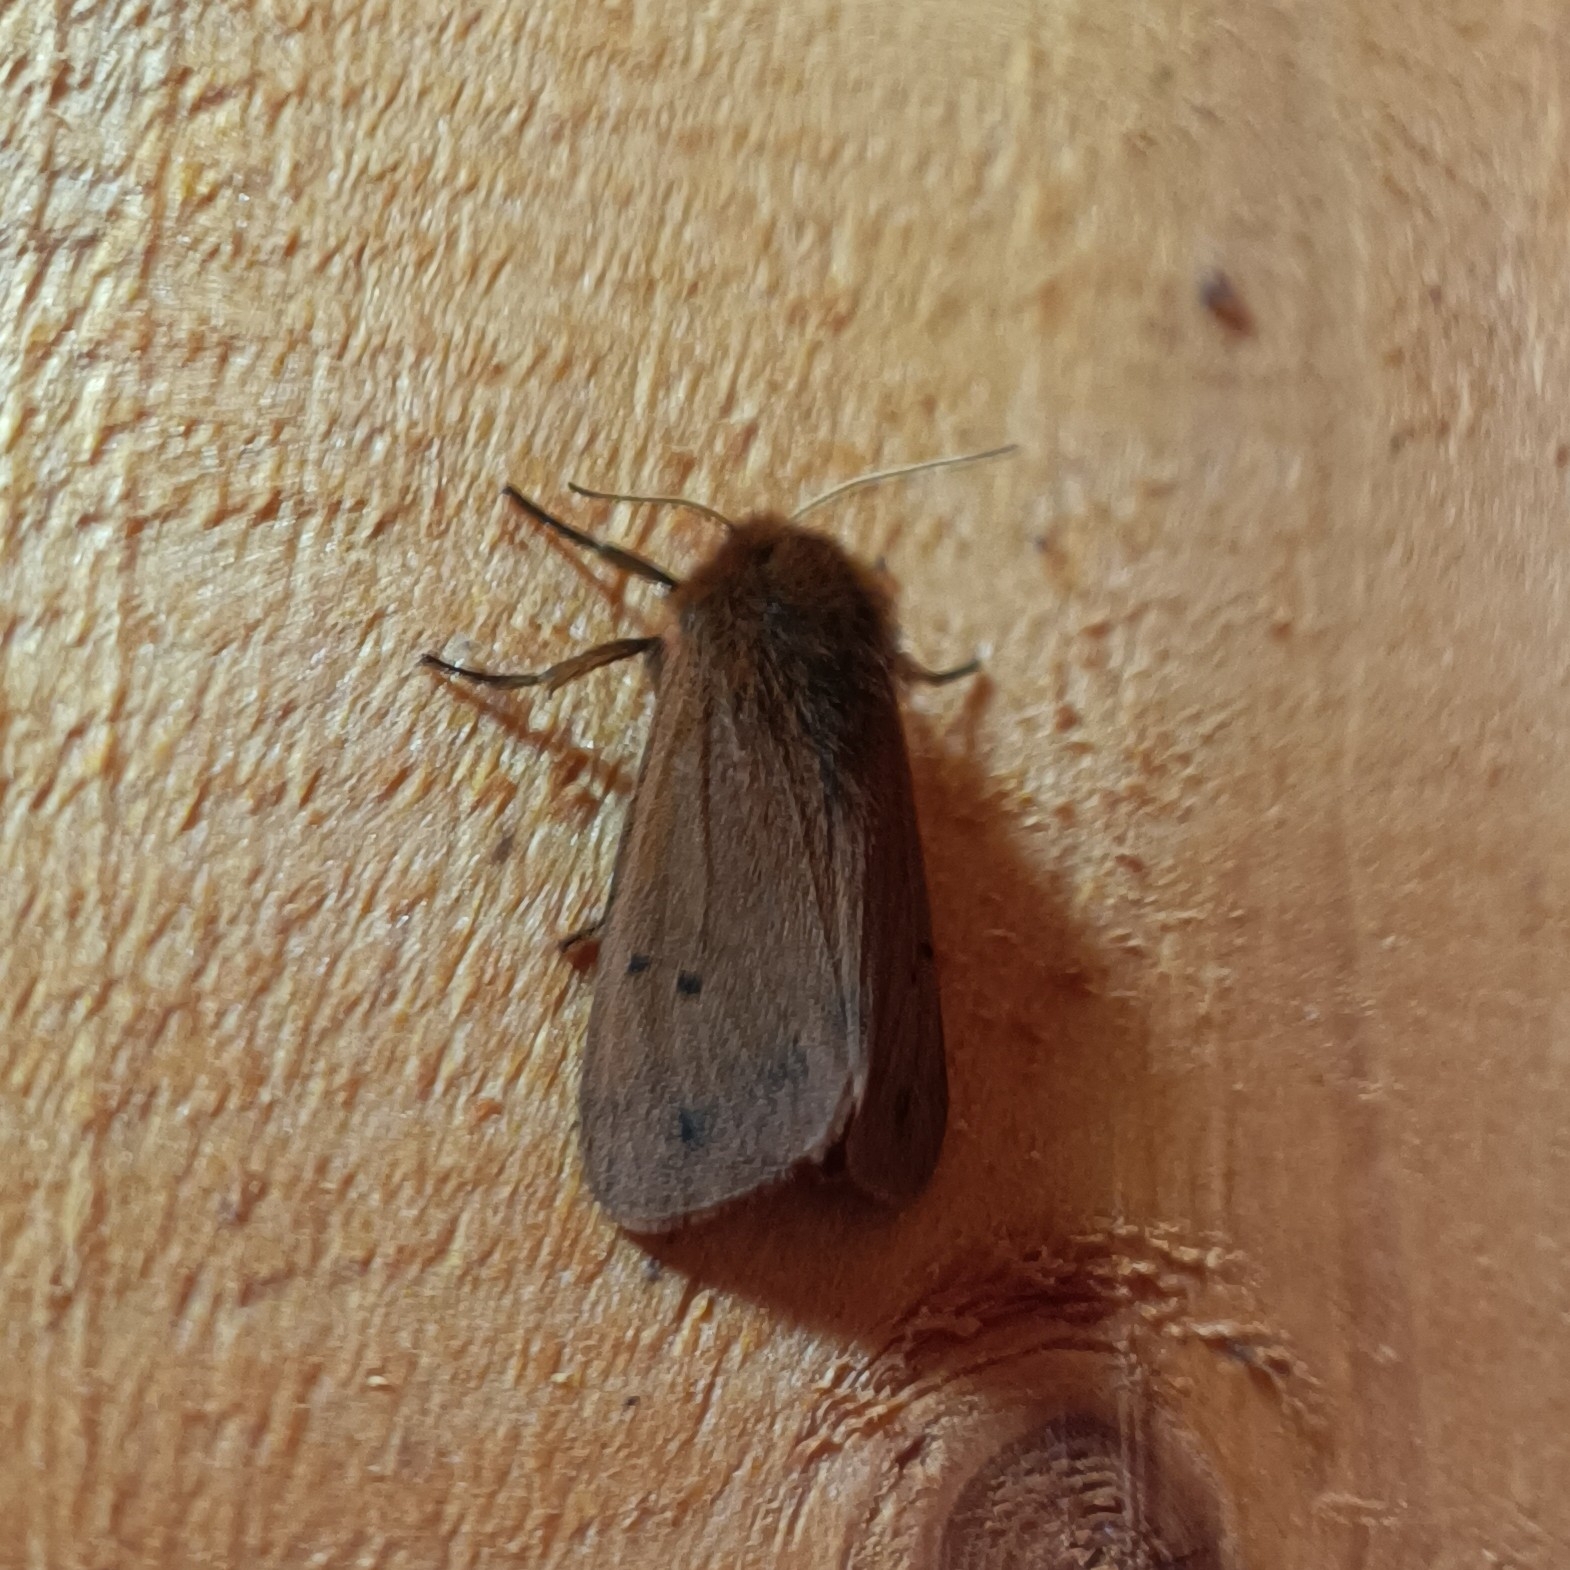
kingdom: Animalia
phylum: Arthropoda
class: Insecta
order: Lepidoptera
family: Erebidae
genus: Phragmatobia
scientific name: Phragmatobia fuliginosa
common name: Ruby tiger
